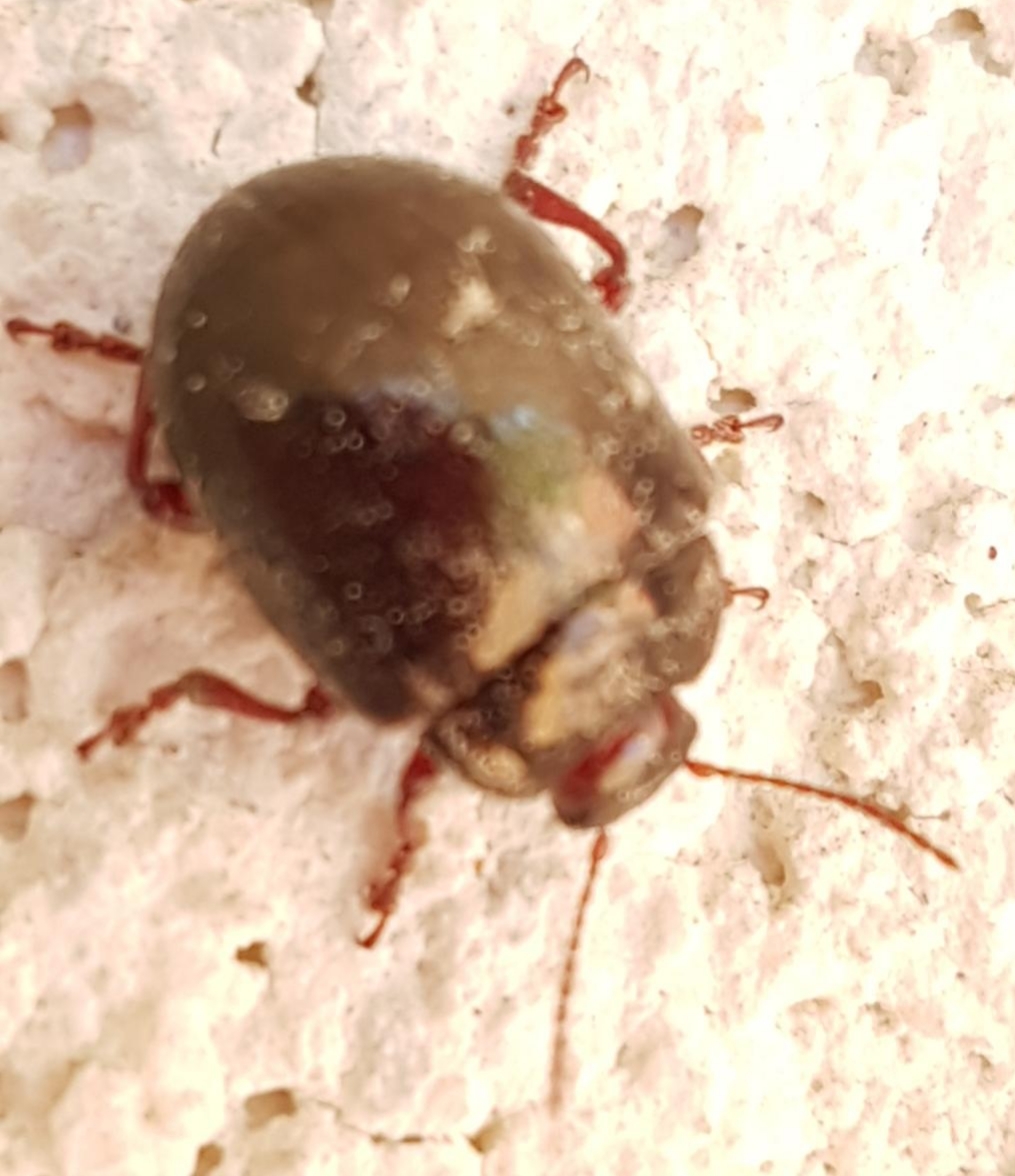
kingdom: Animalia
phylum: Arthropoda
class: Insecta
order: Coleoptera
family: Chrysomelidae
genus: Chrysolina
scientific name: Chrysolina bankii
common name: Leaf beetle
